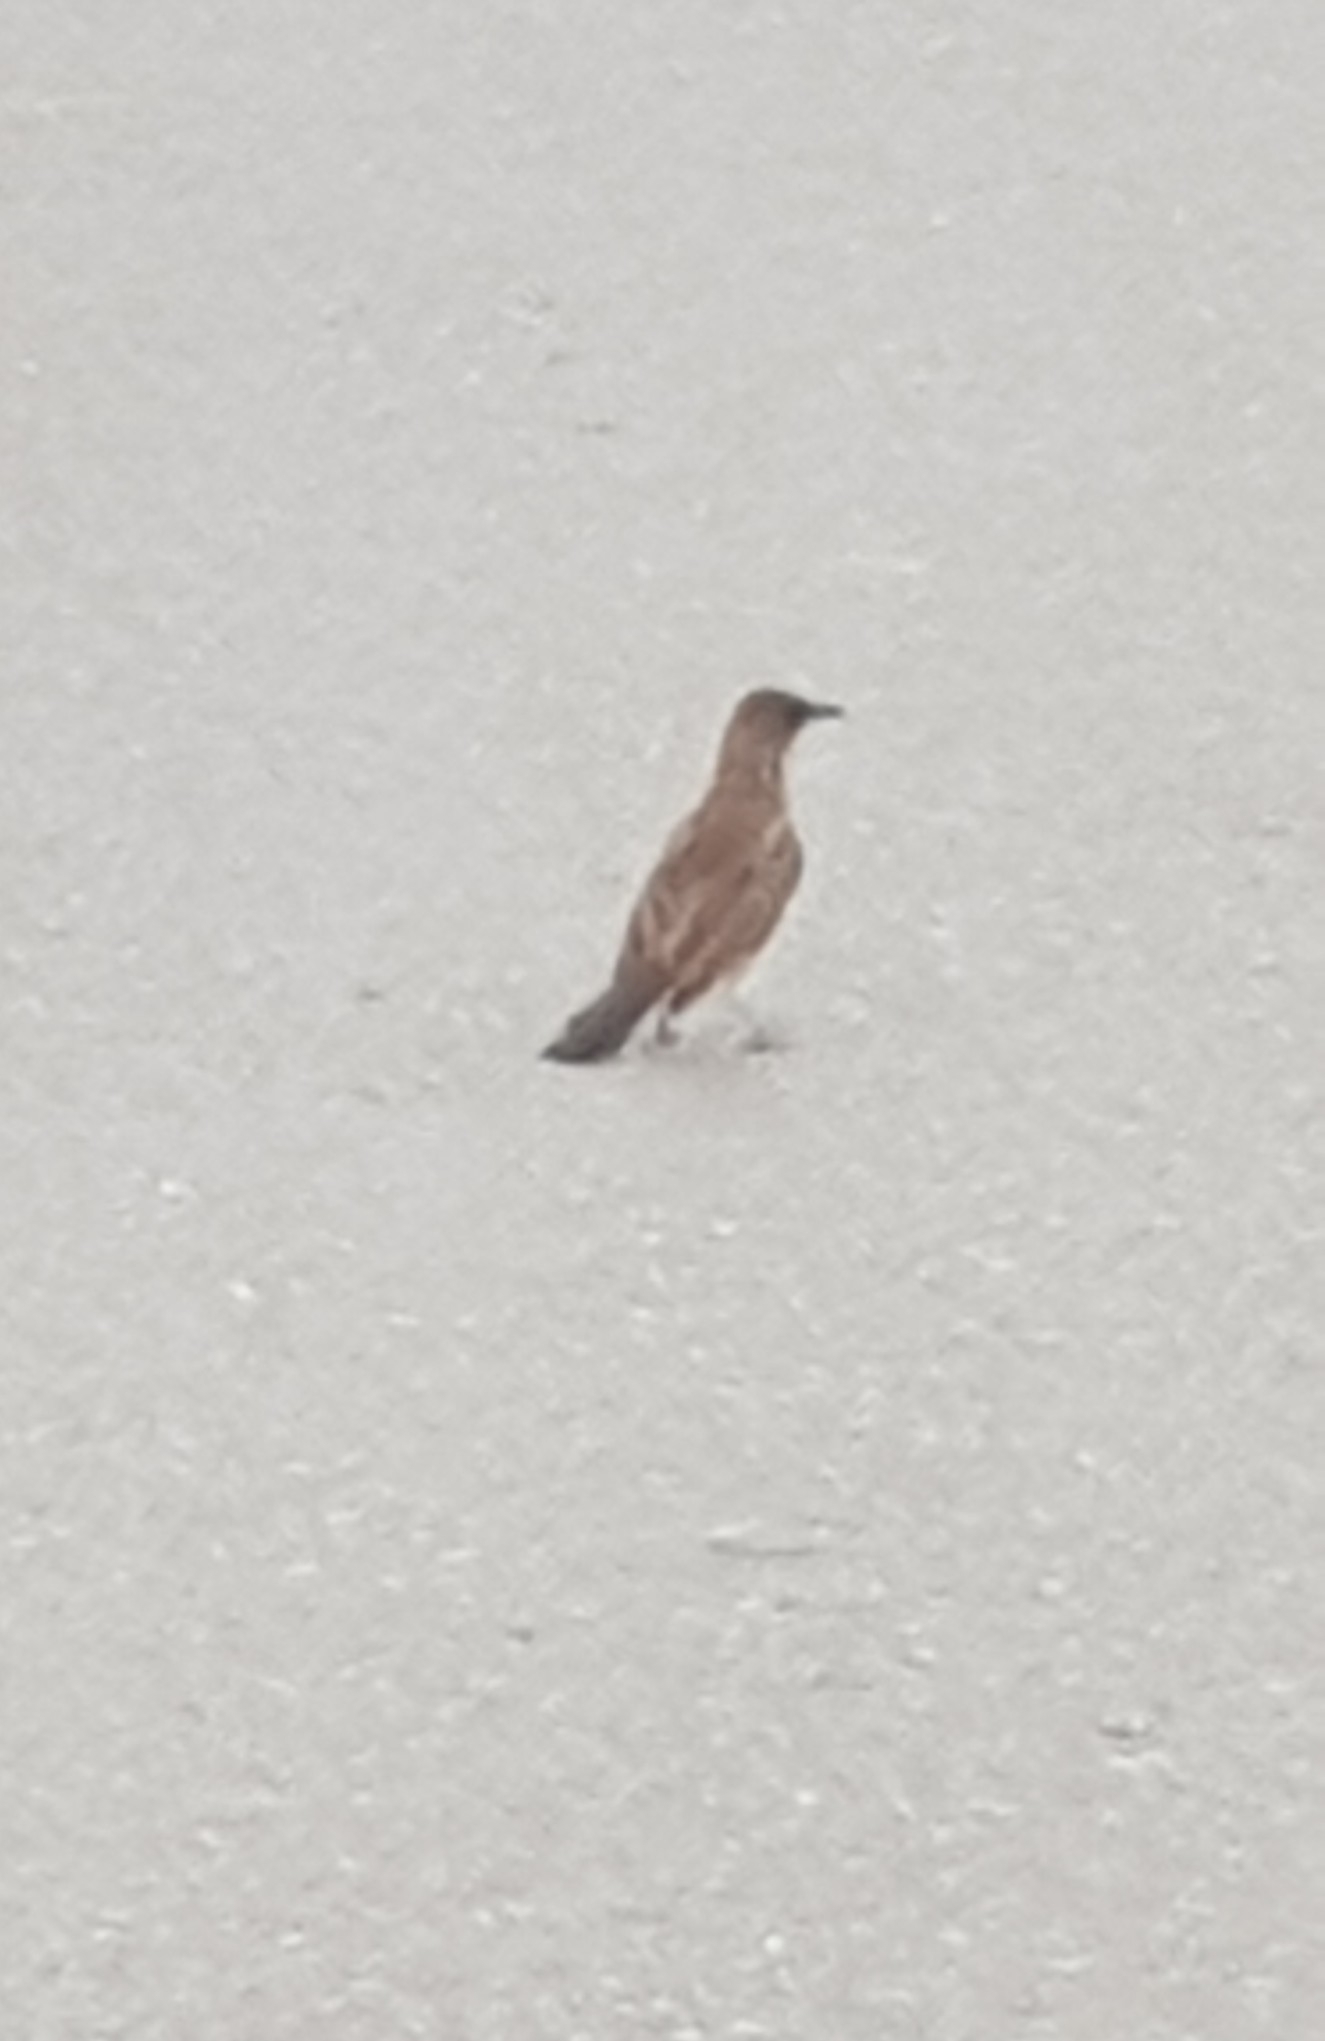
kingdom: Animalia
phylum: Chordata
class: Aves
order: Passeriformes
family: Pycnonotidae
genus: Pycnonotus
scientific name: Pycnonotus barbatus
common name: Common bulbul
